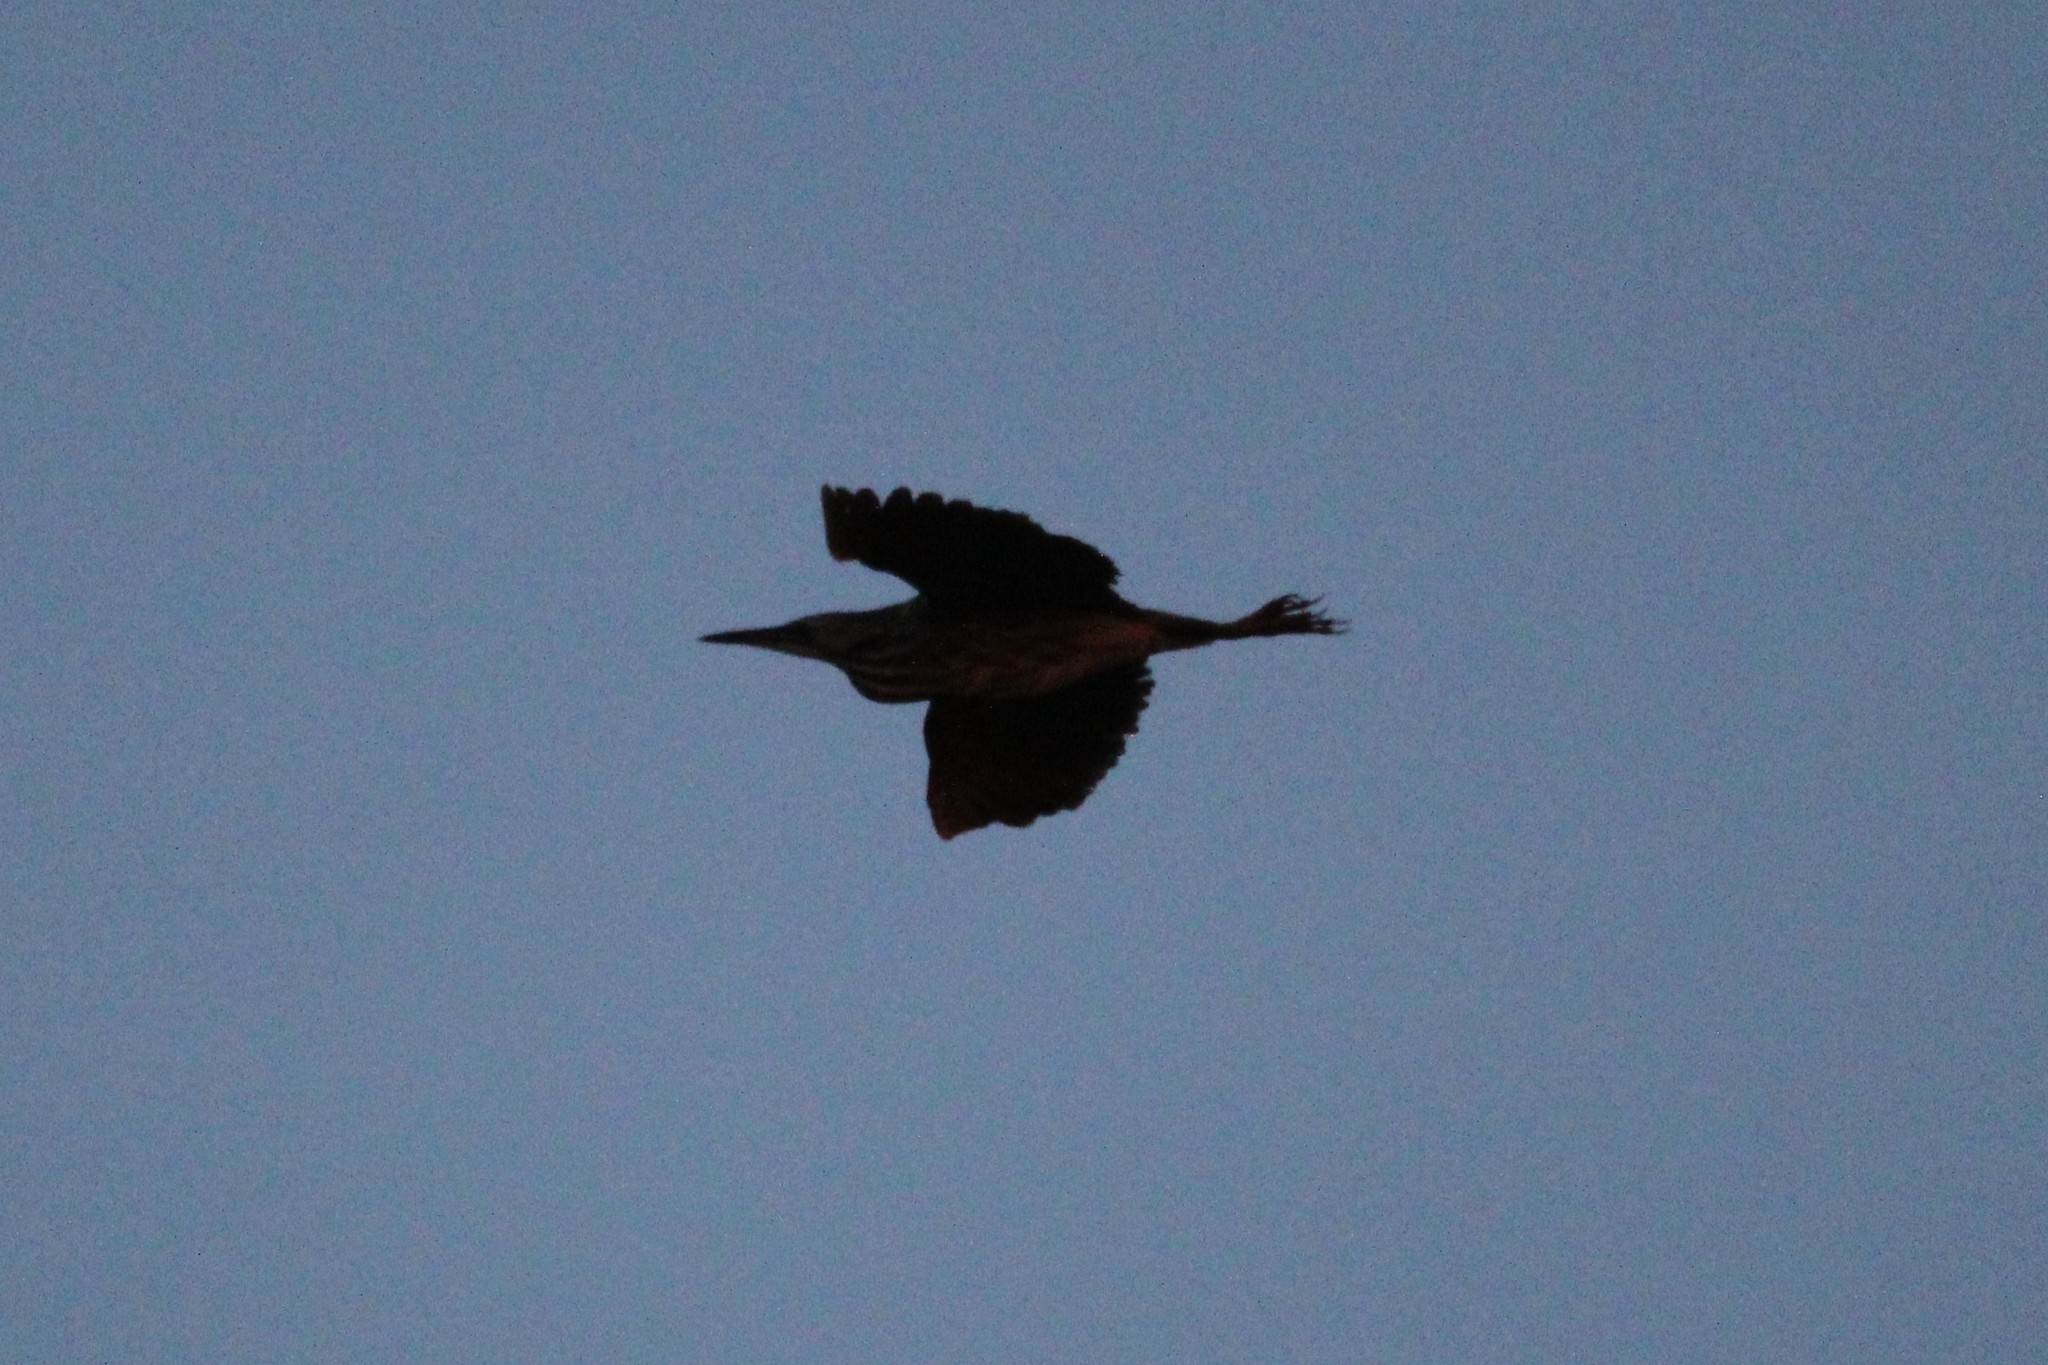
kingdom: Animalia
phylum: Chordata
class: Aves
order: Pelecaniformes
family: Ardeidae
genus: Botaurus
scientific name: Botaurus lentiginosus
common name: American bittern
